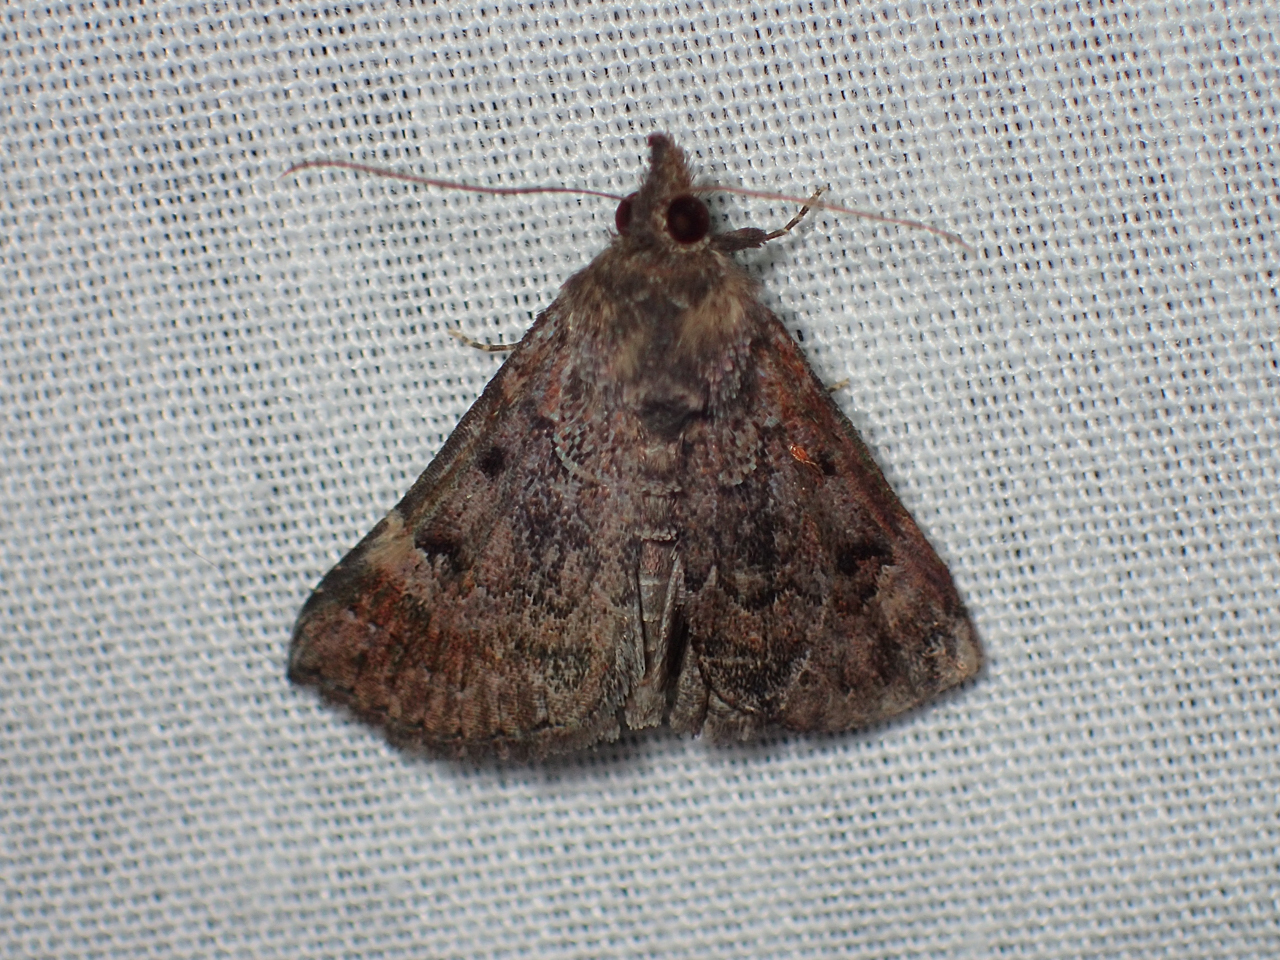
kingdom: Animalia
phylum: Arthropoda
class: Insecta
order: Lepidoptera
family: Erebidae
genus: Hypena
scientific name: Hypena palparia
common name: Mottled bomolocha moth
